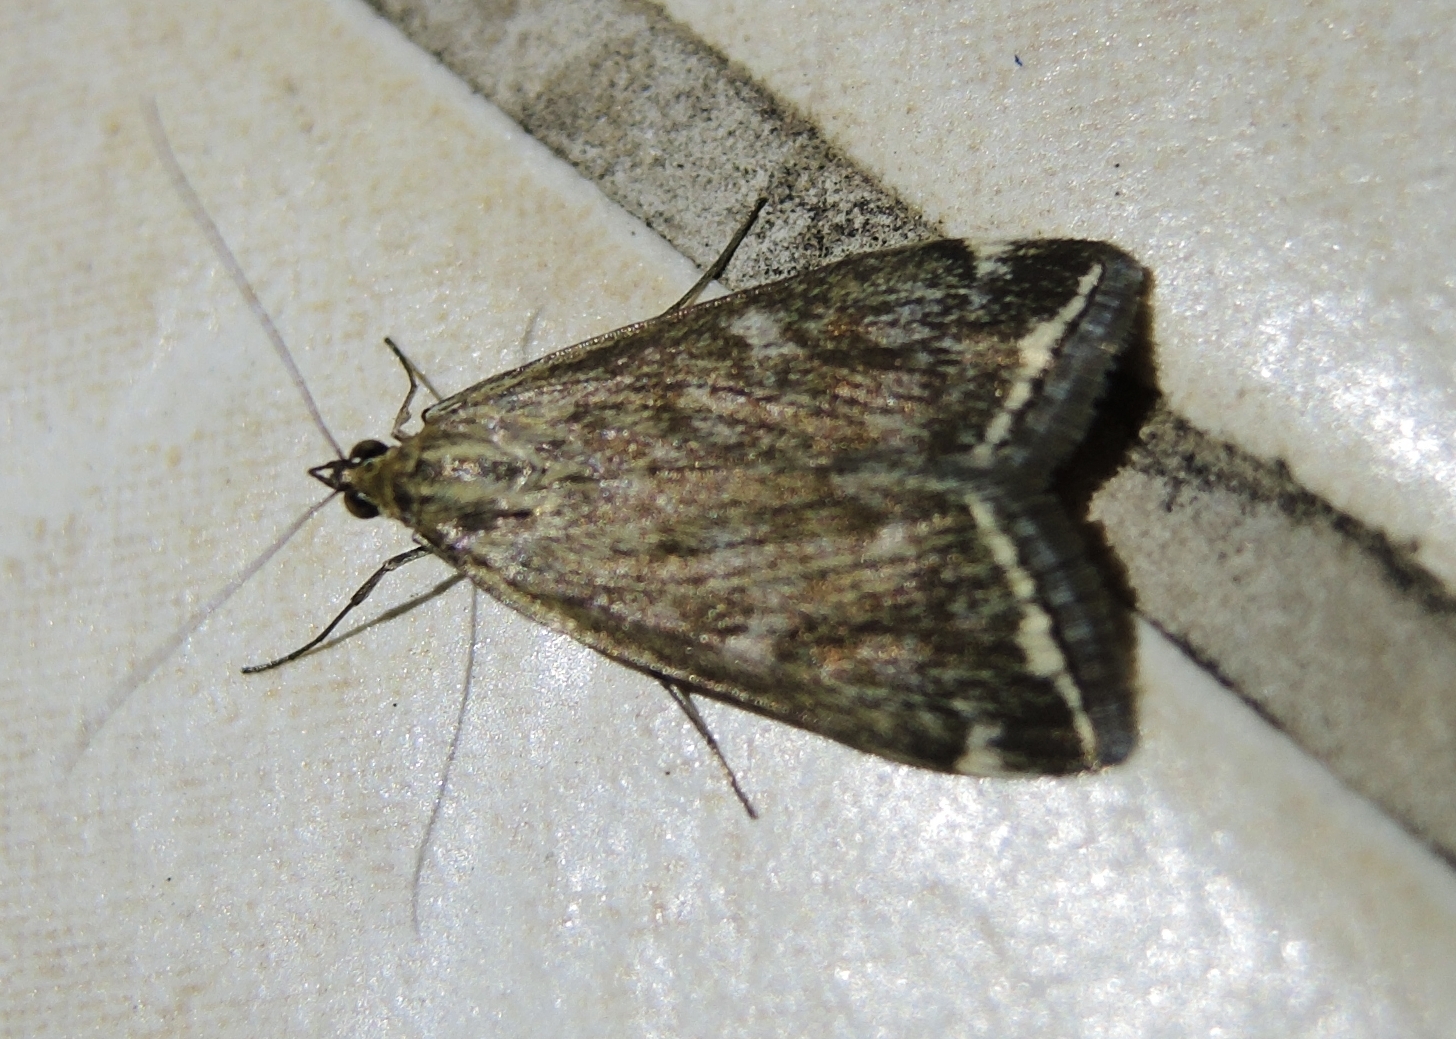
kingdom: Animalia
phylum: Arthropoda
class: Insecta
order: Lepidoptera
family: Crambidae
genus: Loxostege
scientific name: Loxostege sticticalis
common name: Crambid moth
